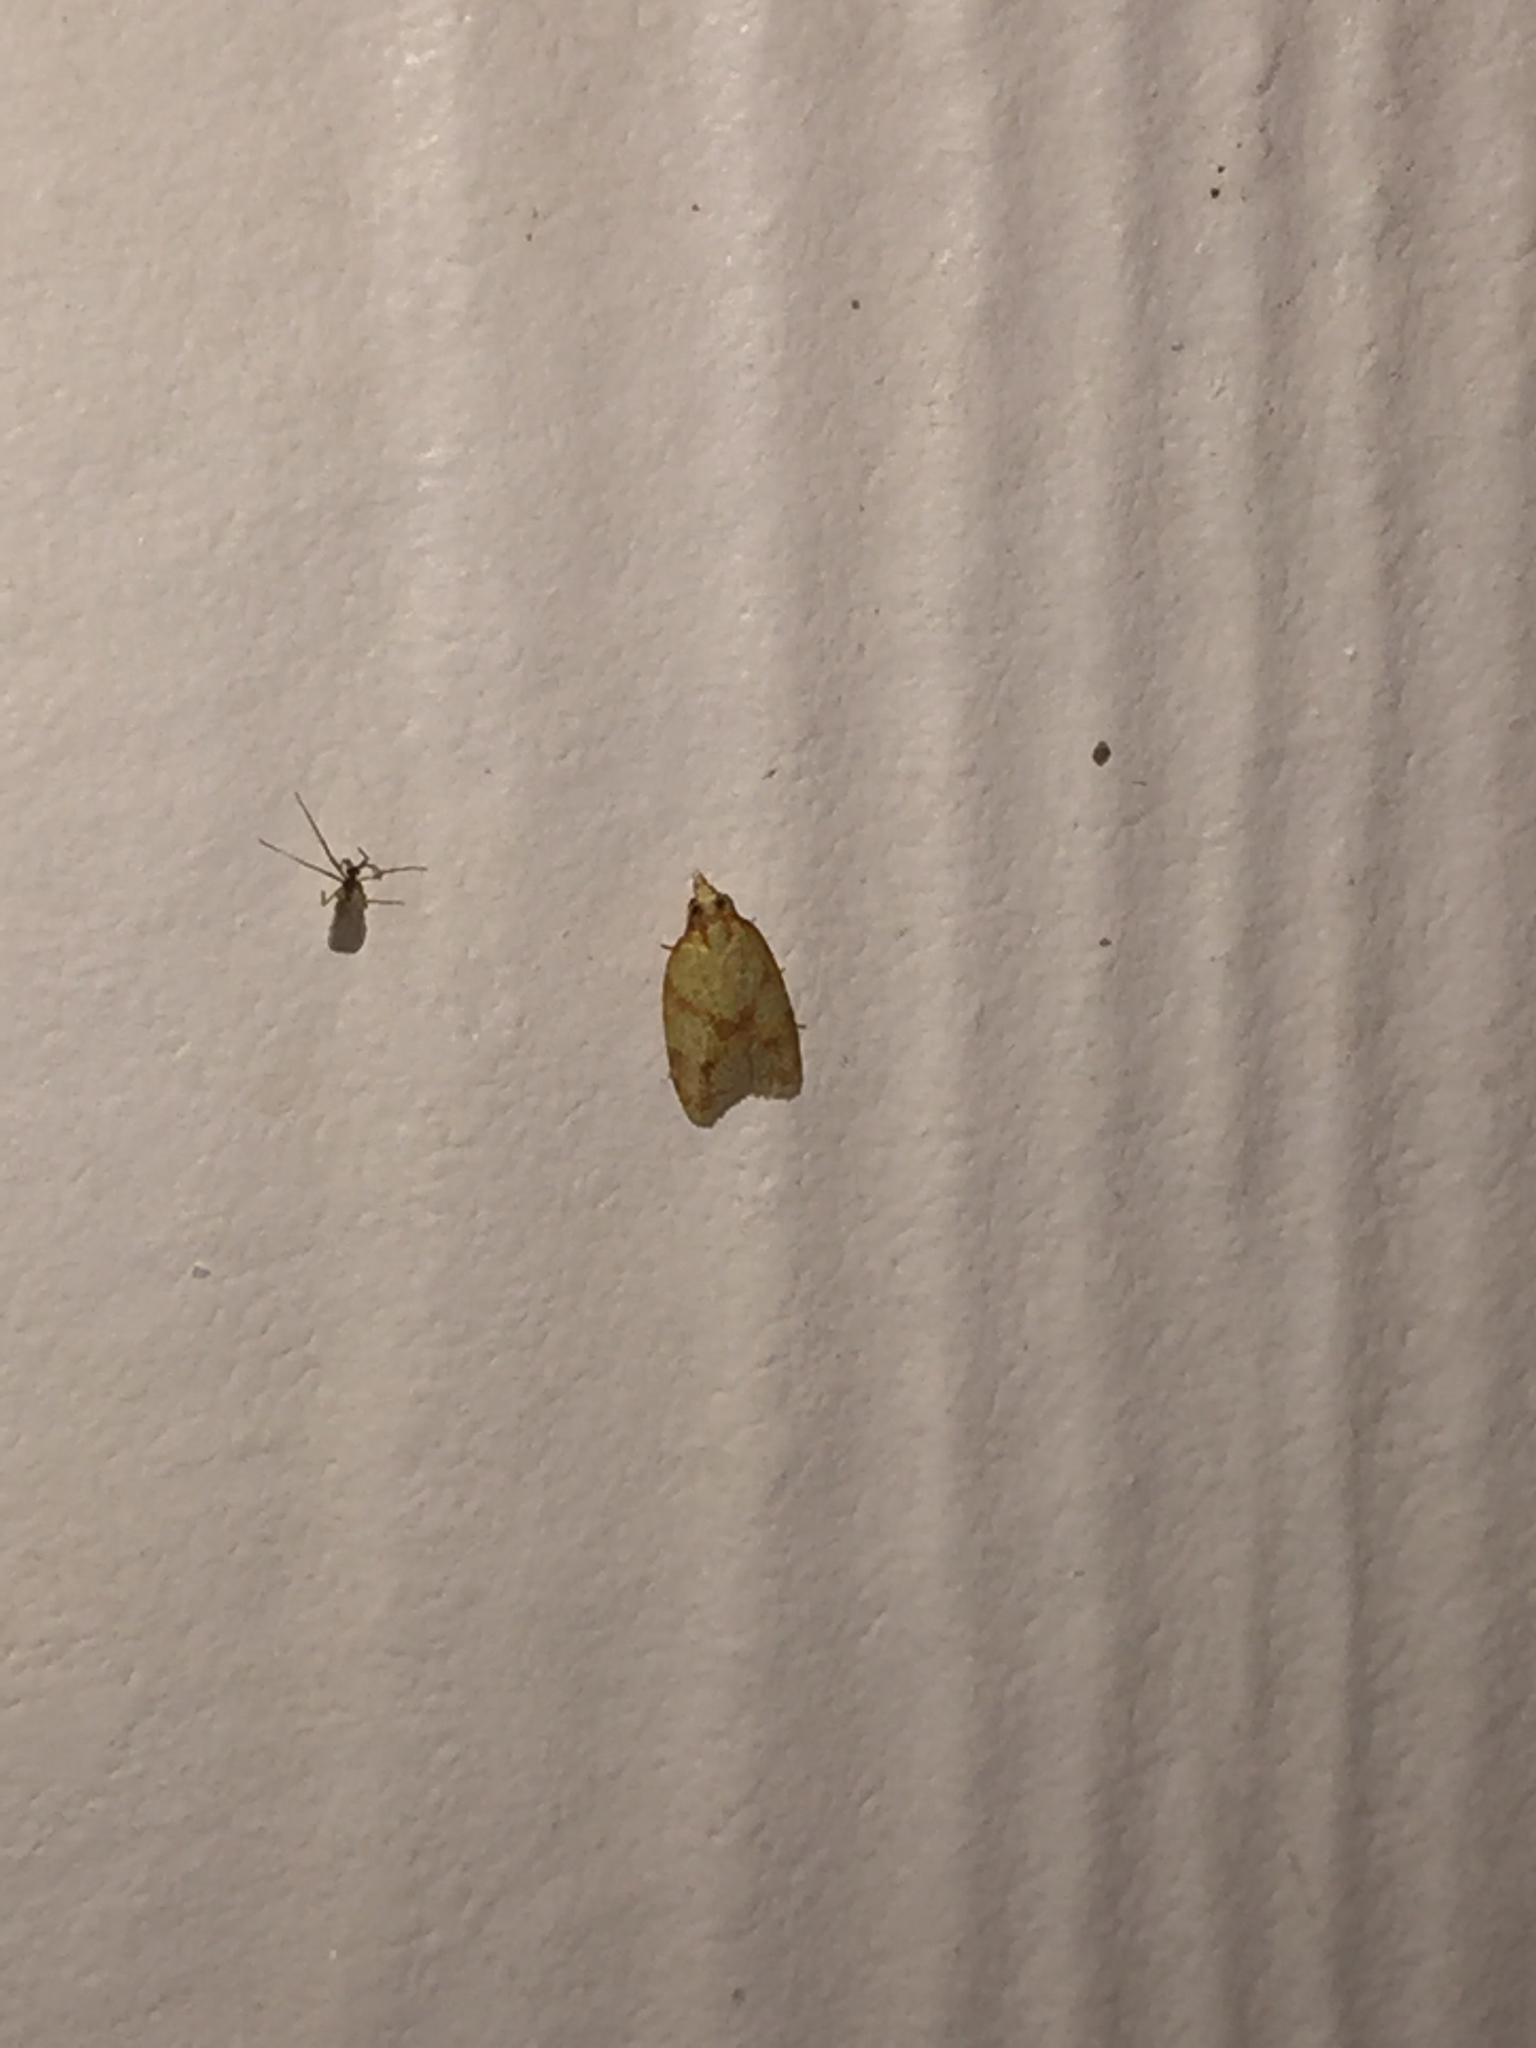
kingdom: Animalia
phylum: Arthropoda
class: Insecta
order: Lepidoptera
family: Tortricidae
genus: Sparganothis
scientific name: Sparganothis sulfureana
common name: Sparganothis fruitworm moth
